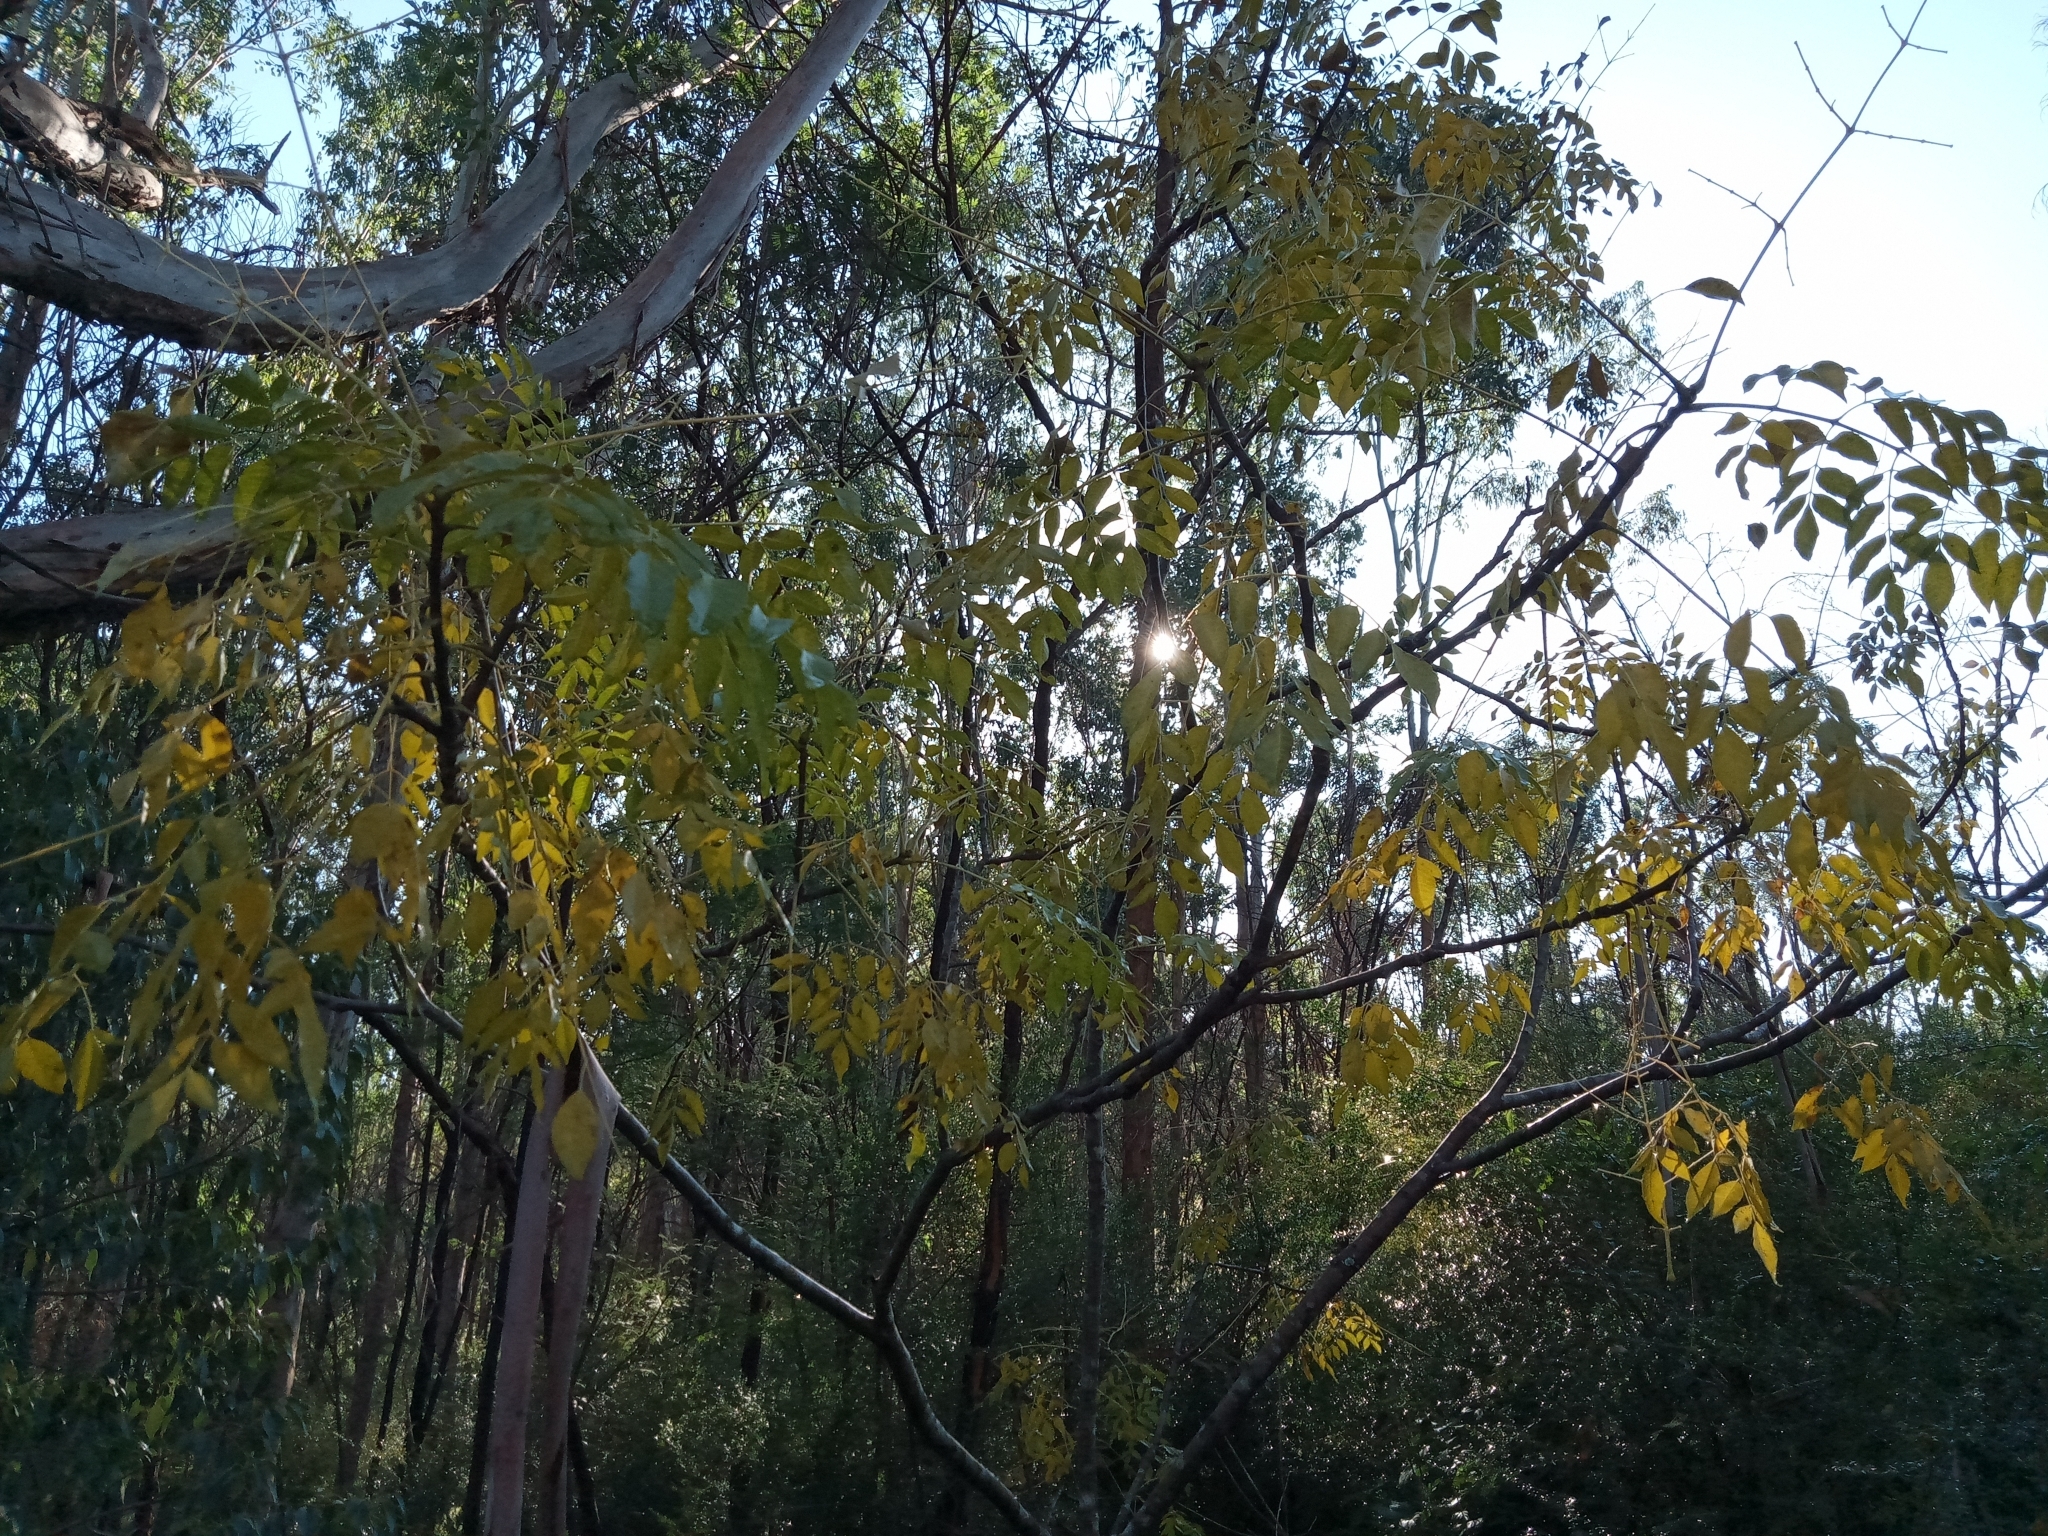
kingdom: Plantae
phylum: Tracheophyta
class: Magnoliopsida
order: Sapindales
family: Meliaceae
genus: Melia
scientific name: Melia azedarach
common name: Chinaberrytree
